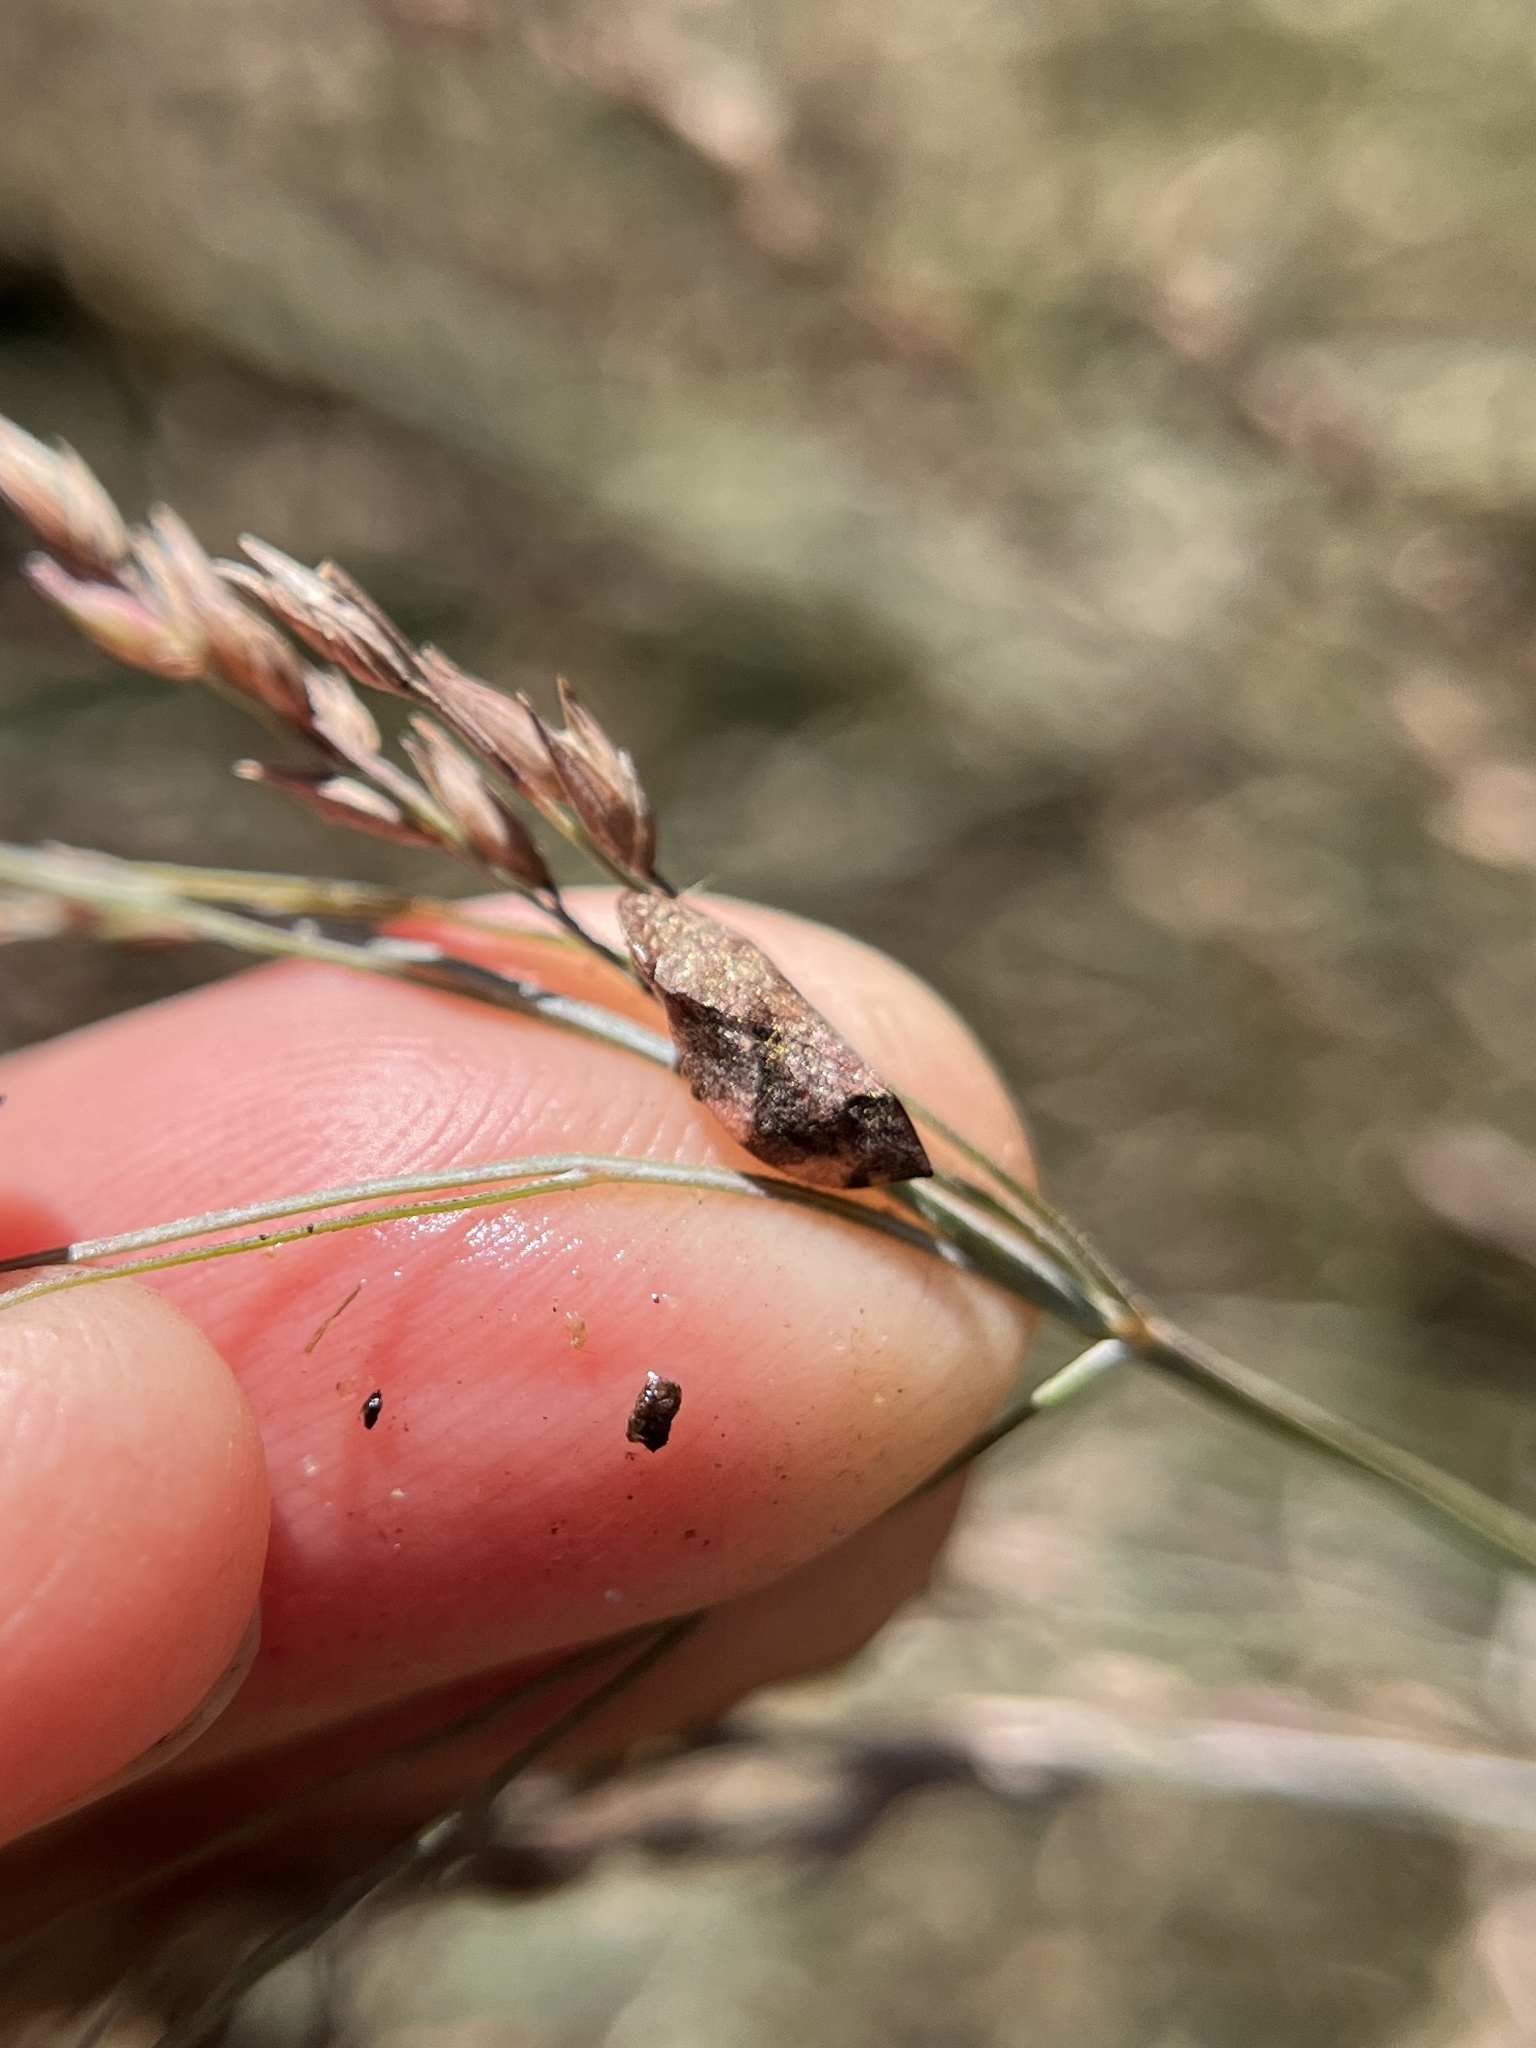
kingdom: Animalia
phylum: Arthropoda
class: Insecta
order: Hemiptera
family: Aphrophoridae
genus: Lepyronia
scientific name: Lepyronia quadrangularis
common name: Diamond-backed spittlebug
